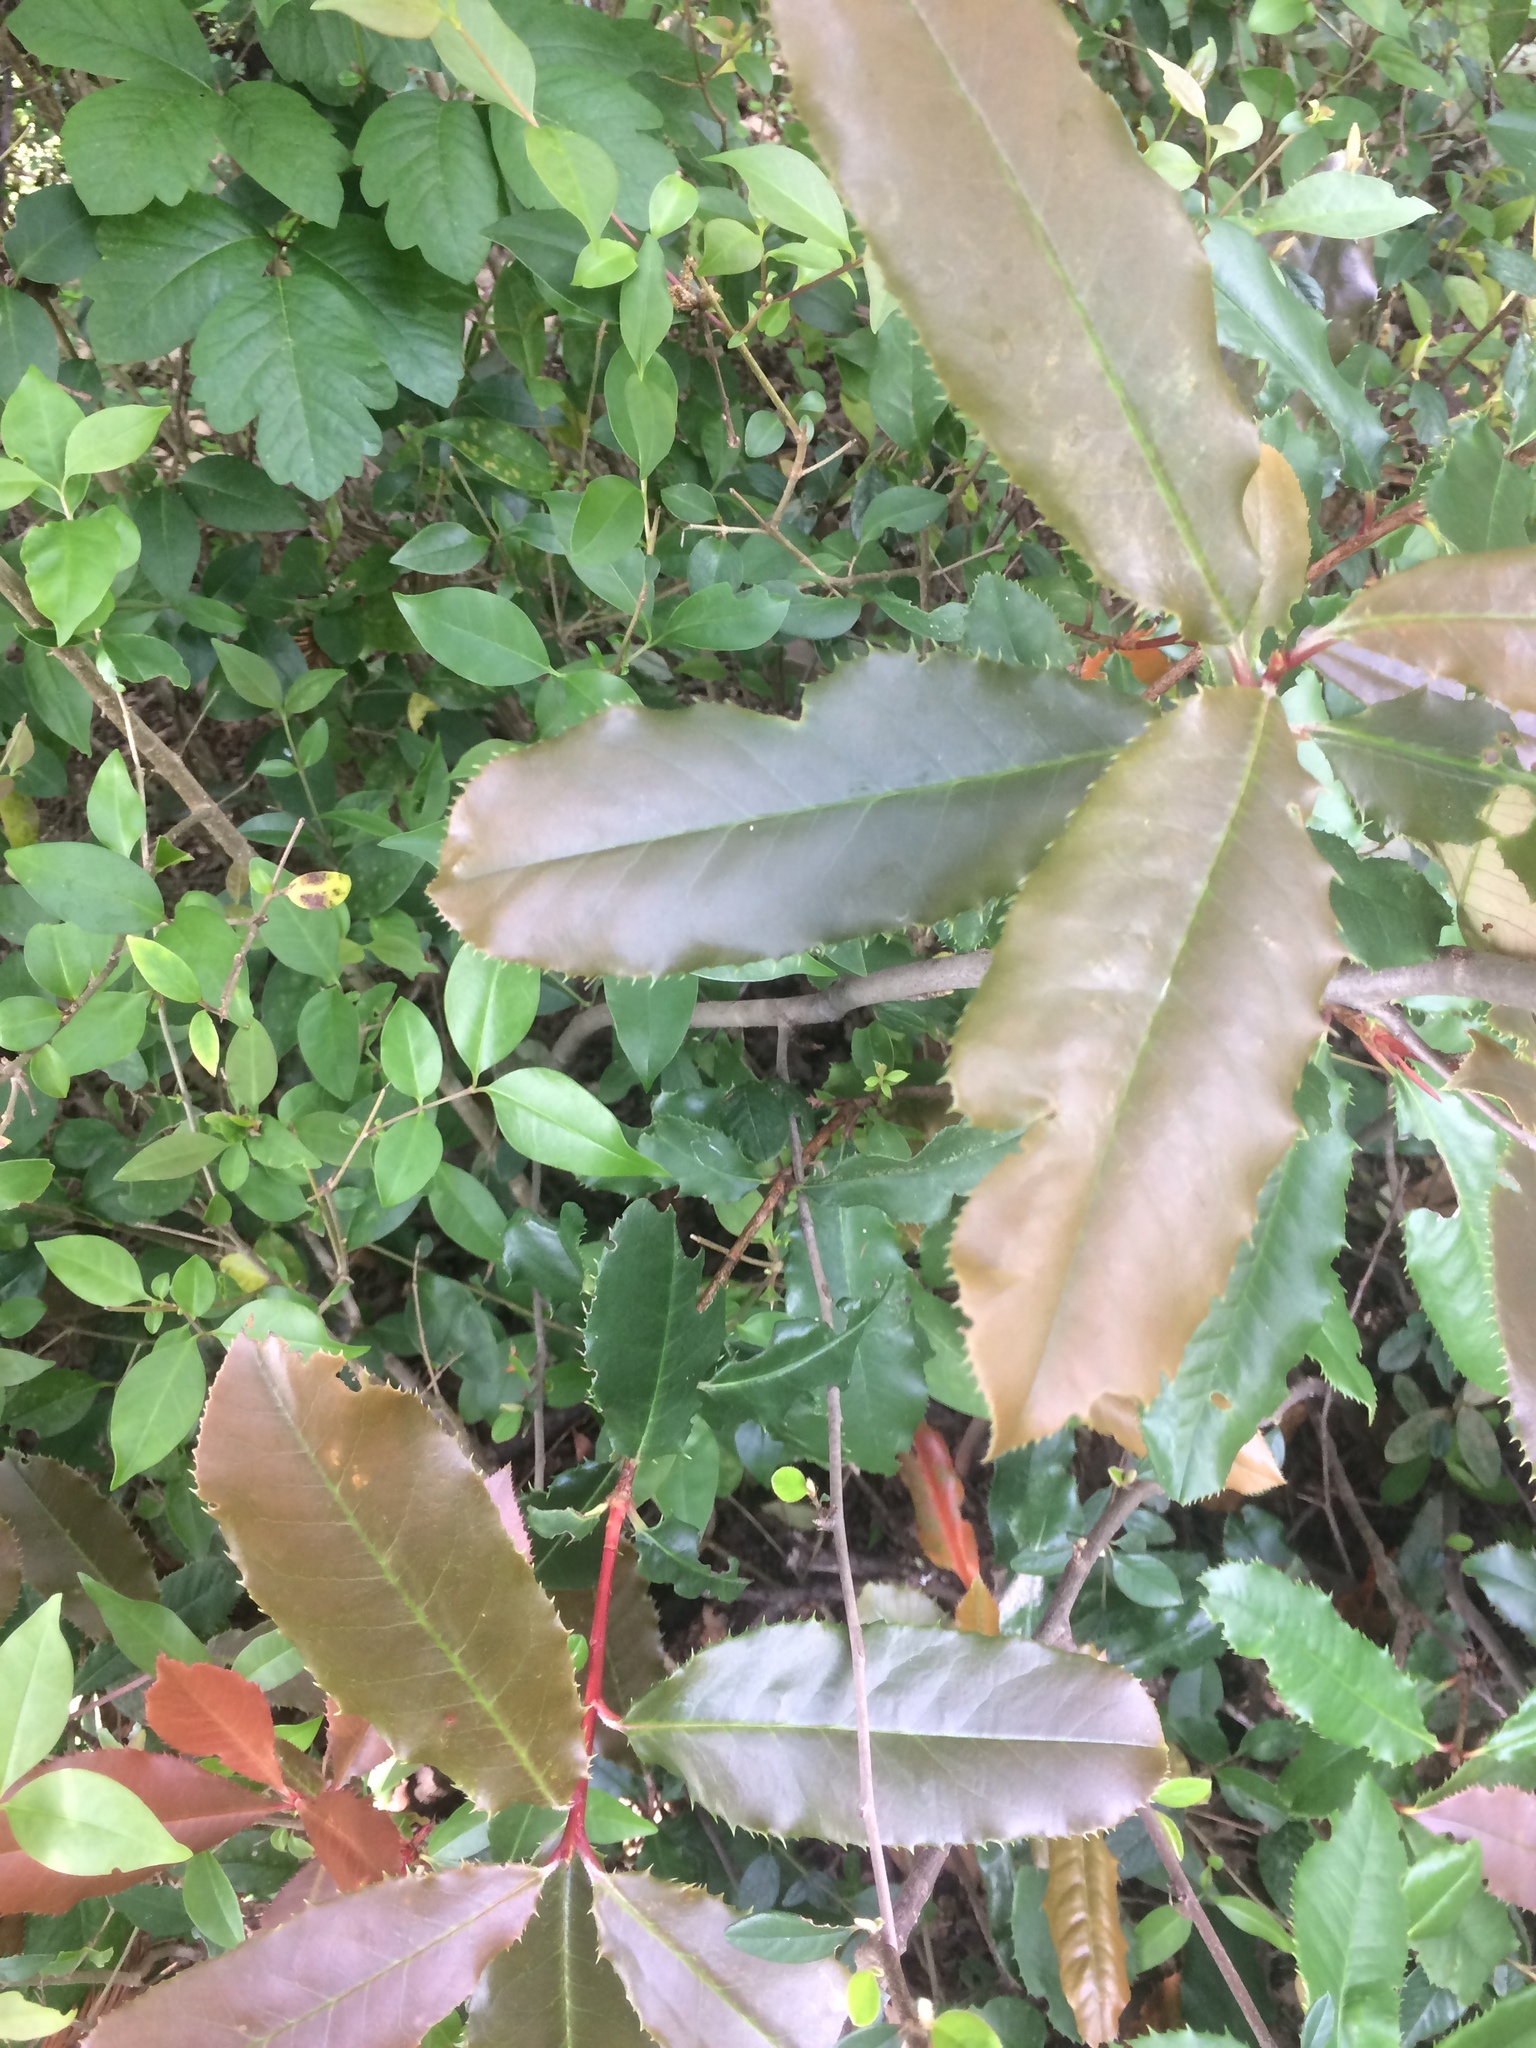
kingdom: Plantae
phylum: Tracheophyta
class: Magnoliopsida
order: Rosales
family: Rosaceae
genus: Heteromeles
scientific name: Heteromeles arbutifolia
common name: California-holly
